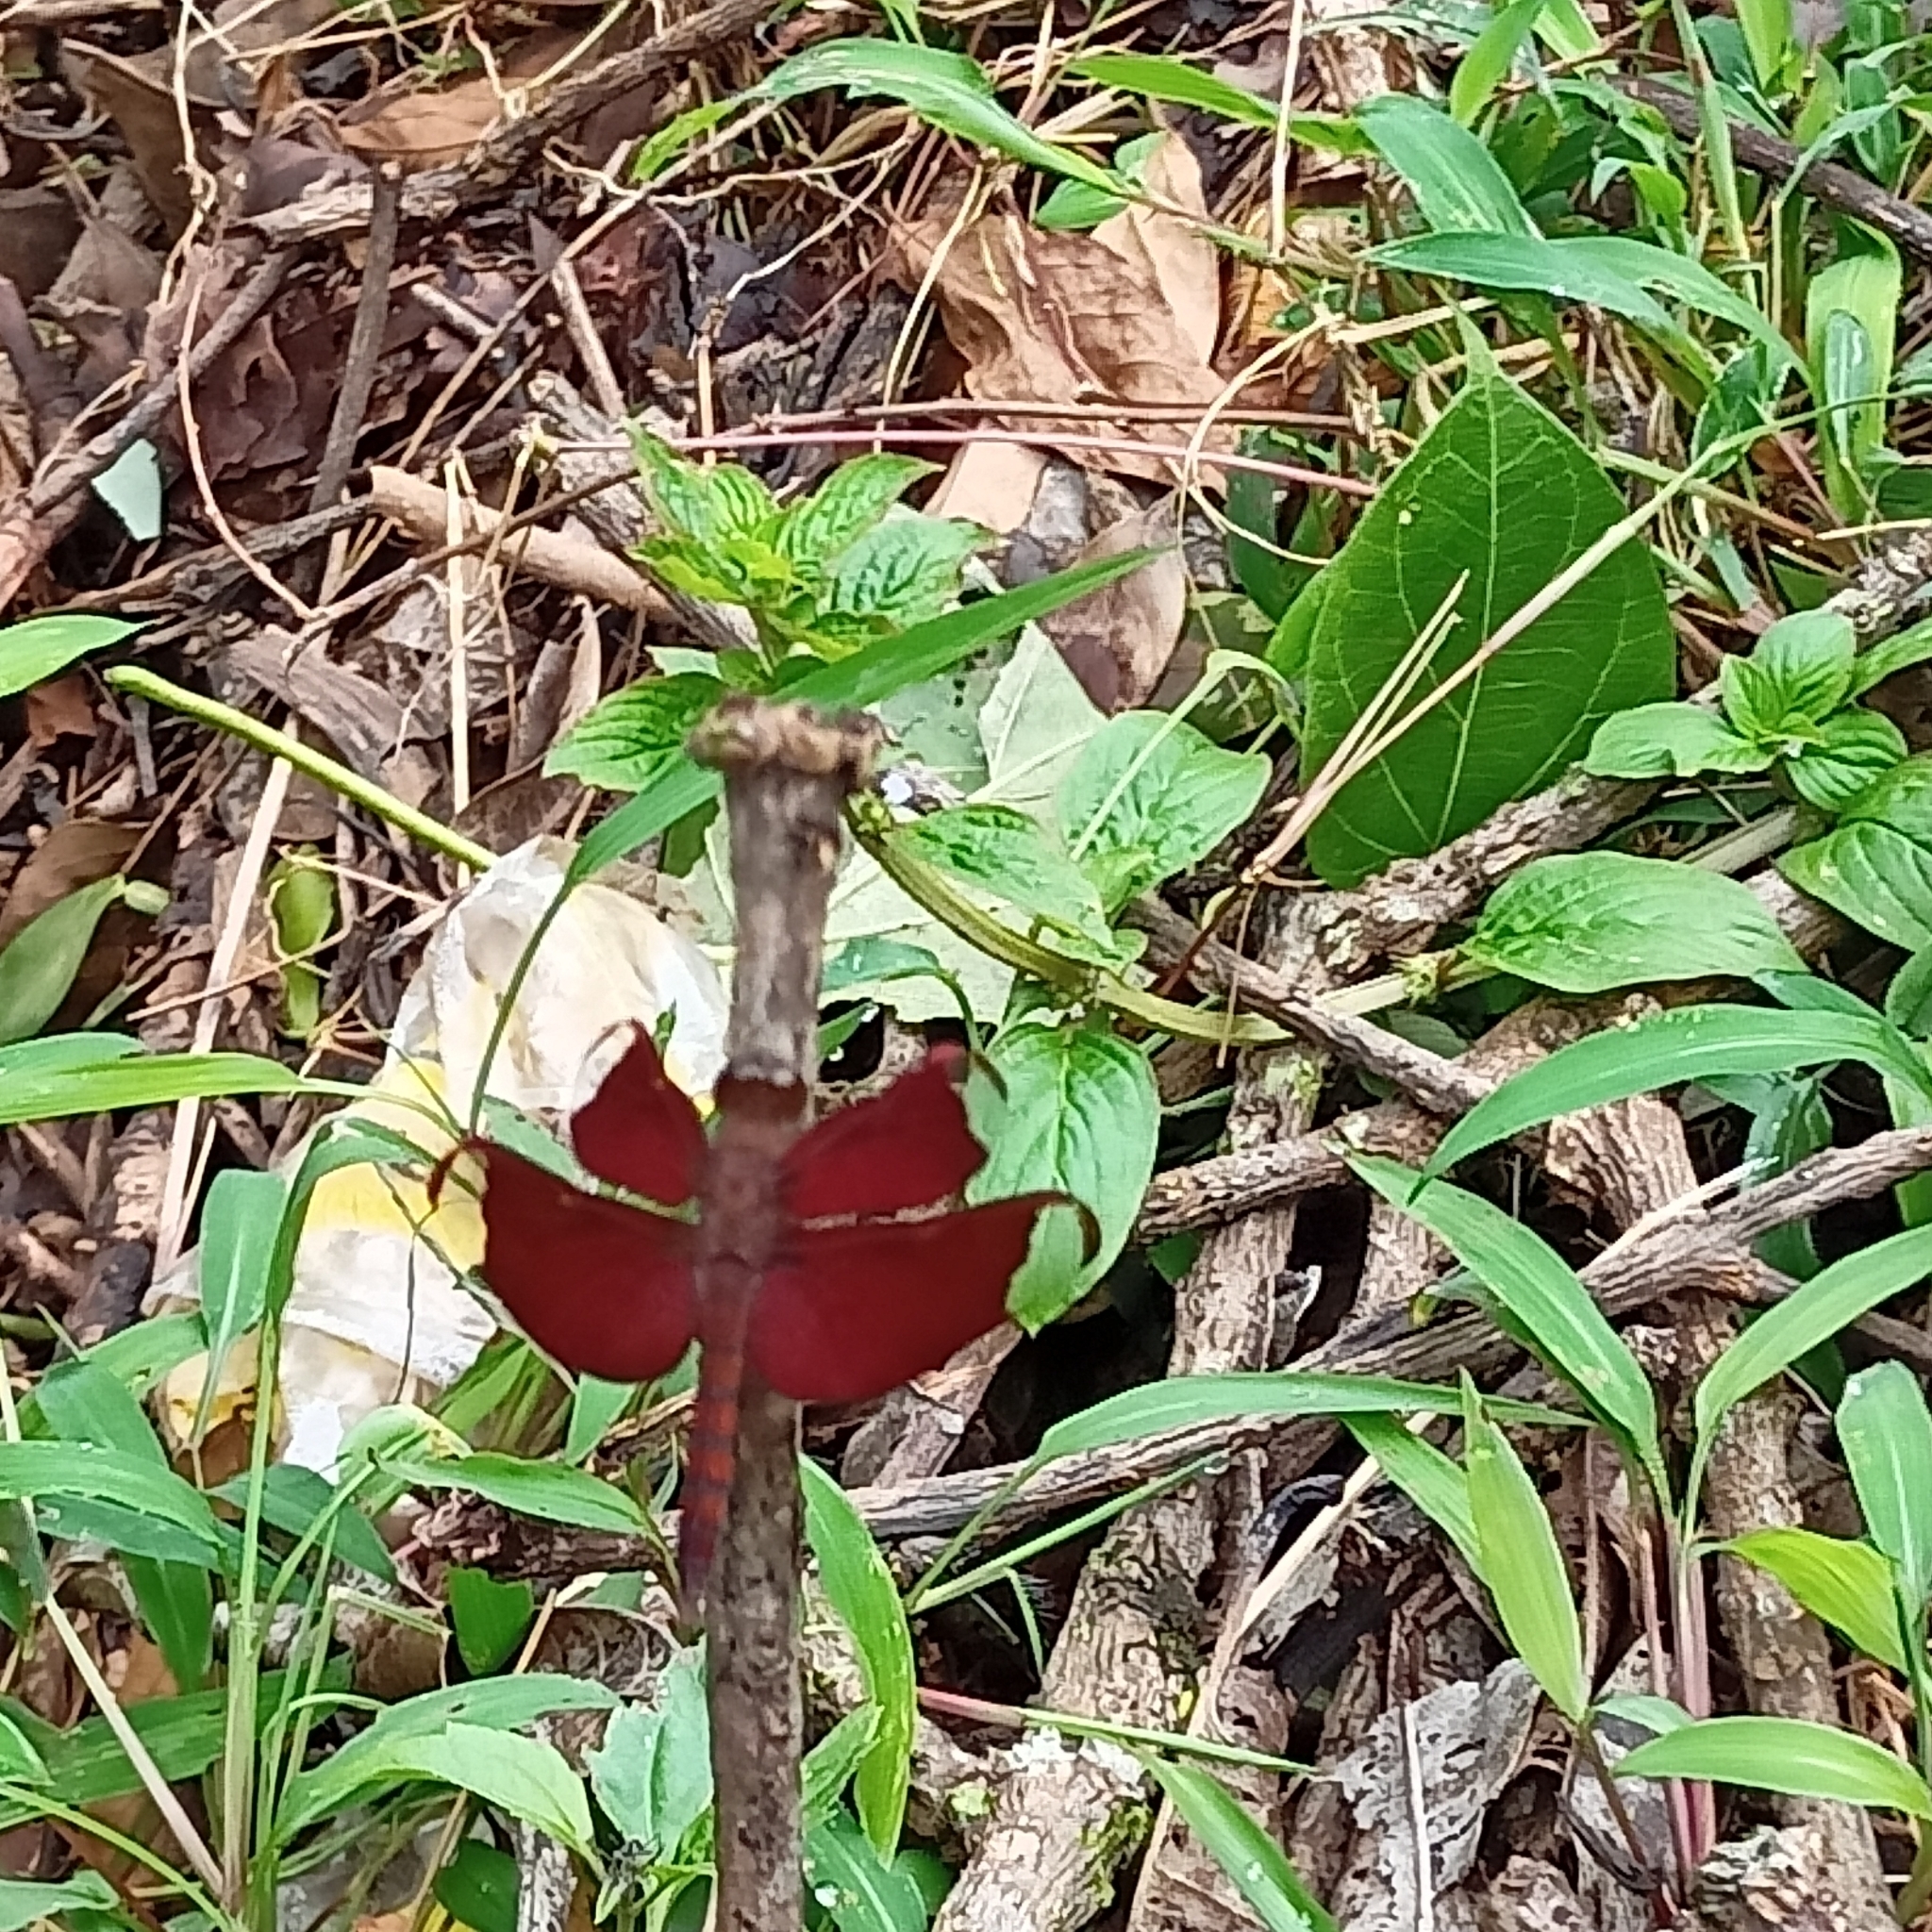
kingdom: Animalia
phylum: Arthropoda
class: Insecta
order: Odonata
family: Libellulidae
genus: Neurothemis
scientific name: Neurothemis fulvia
